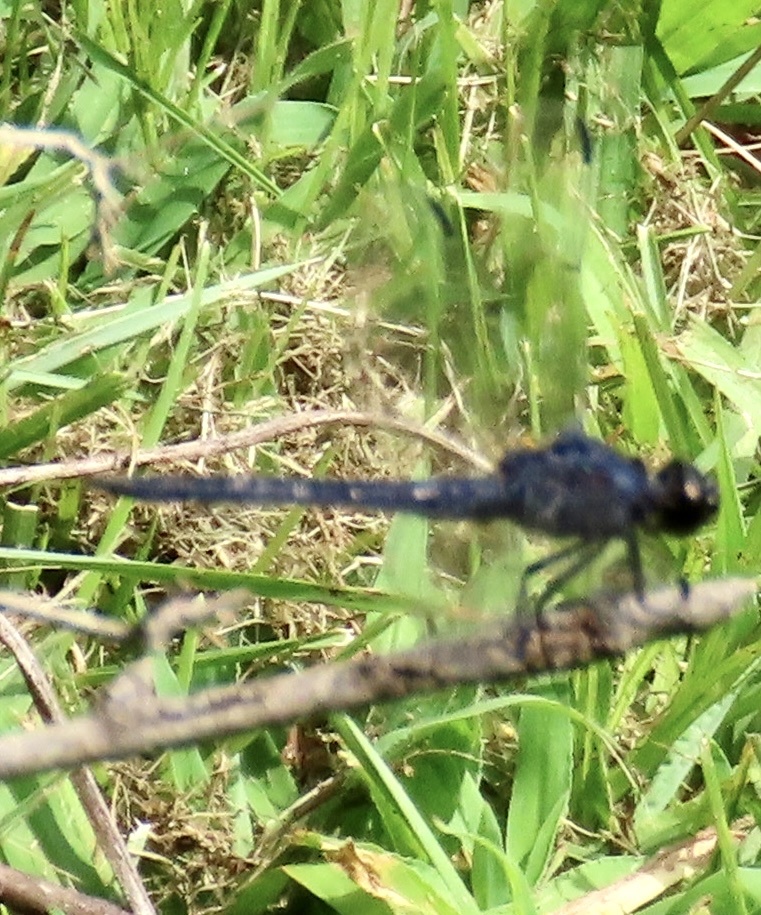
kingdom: Animalia
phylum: Arthropoda
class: Insecta
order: Odonata
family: Libellulidae
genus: Libellula
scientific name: Libellula incesta
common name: Slaty skimmer
